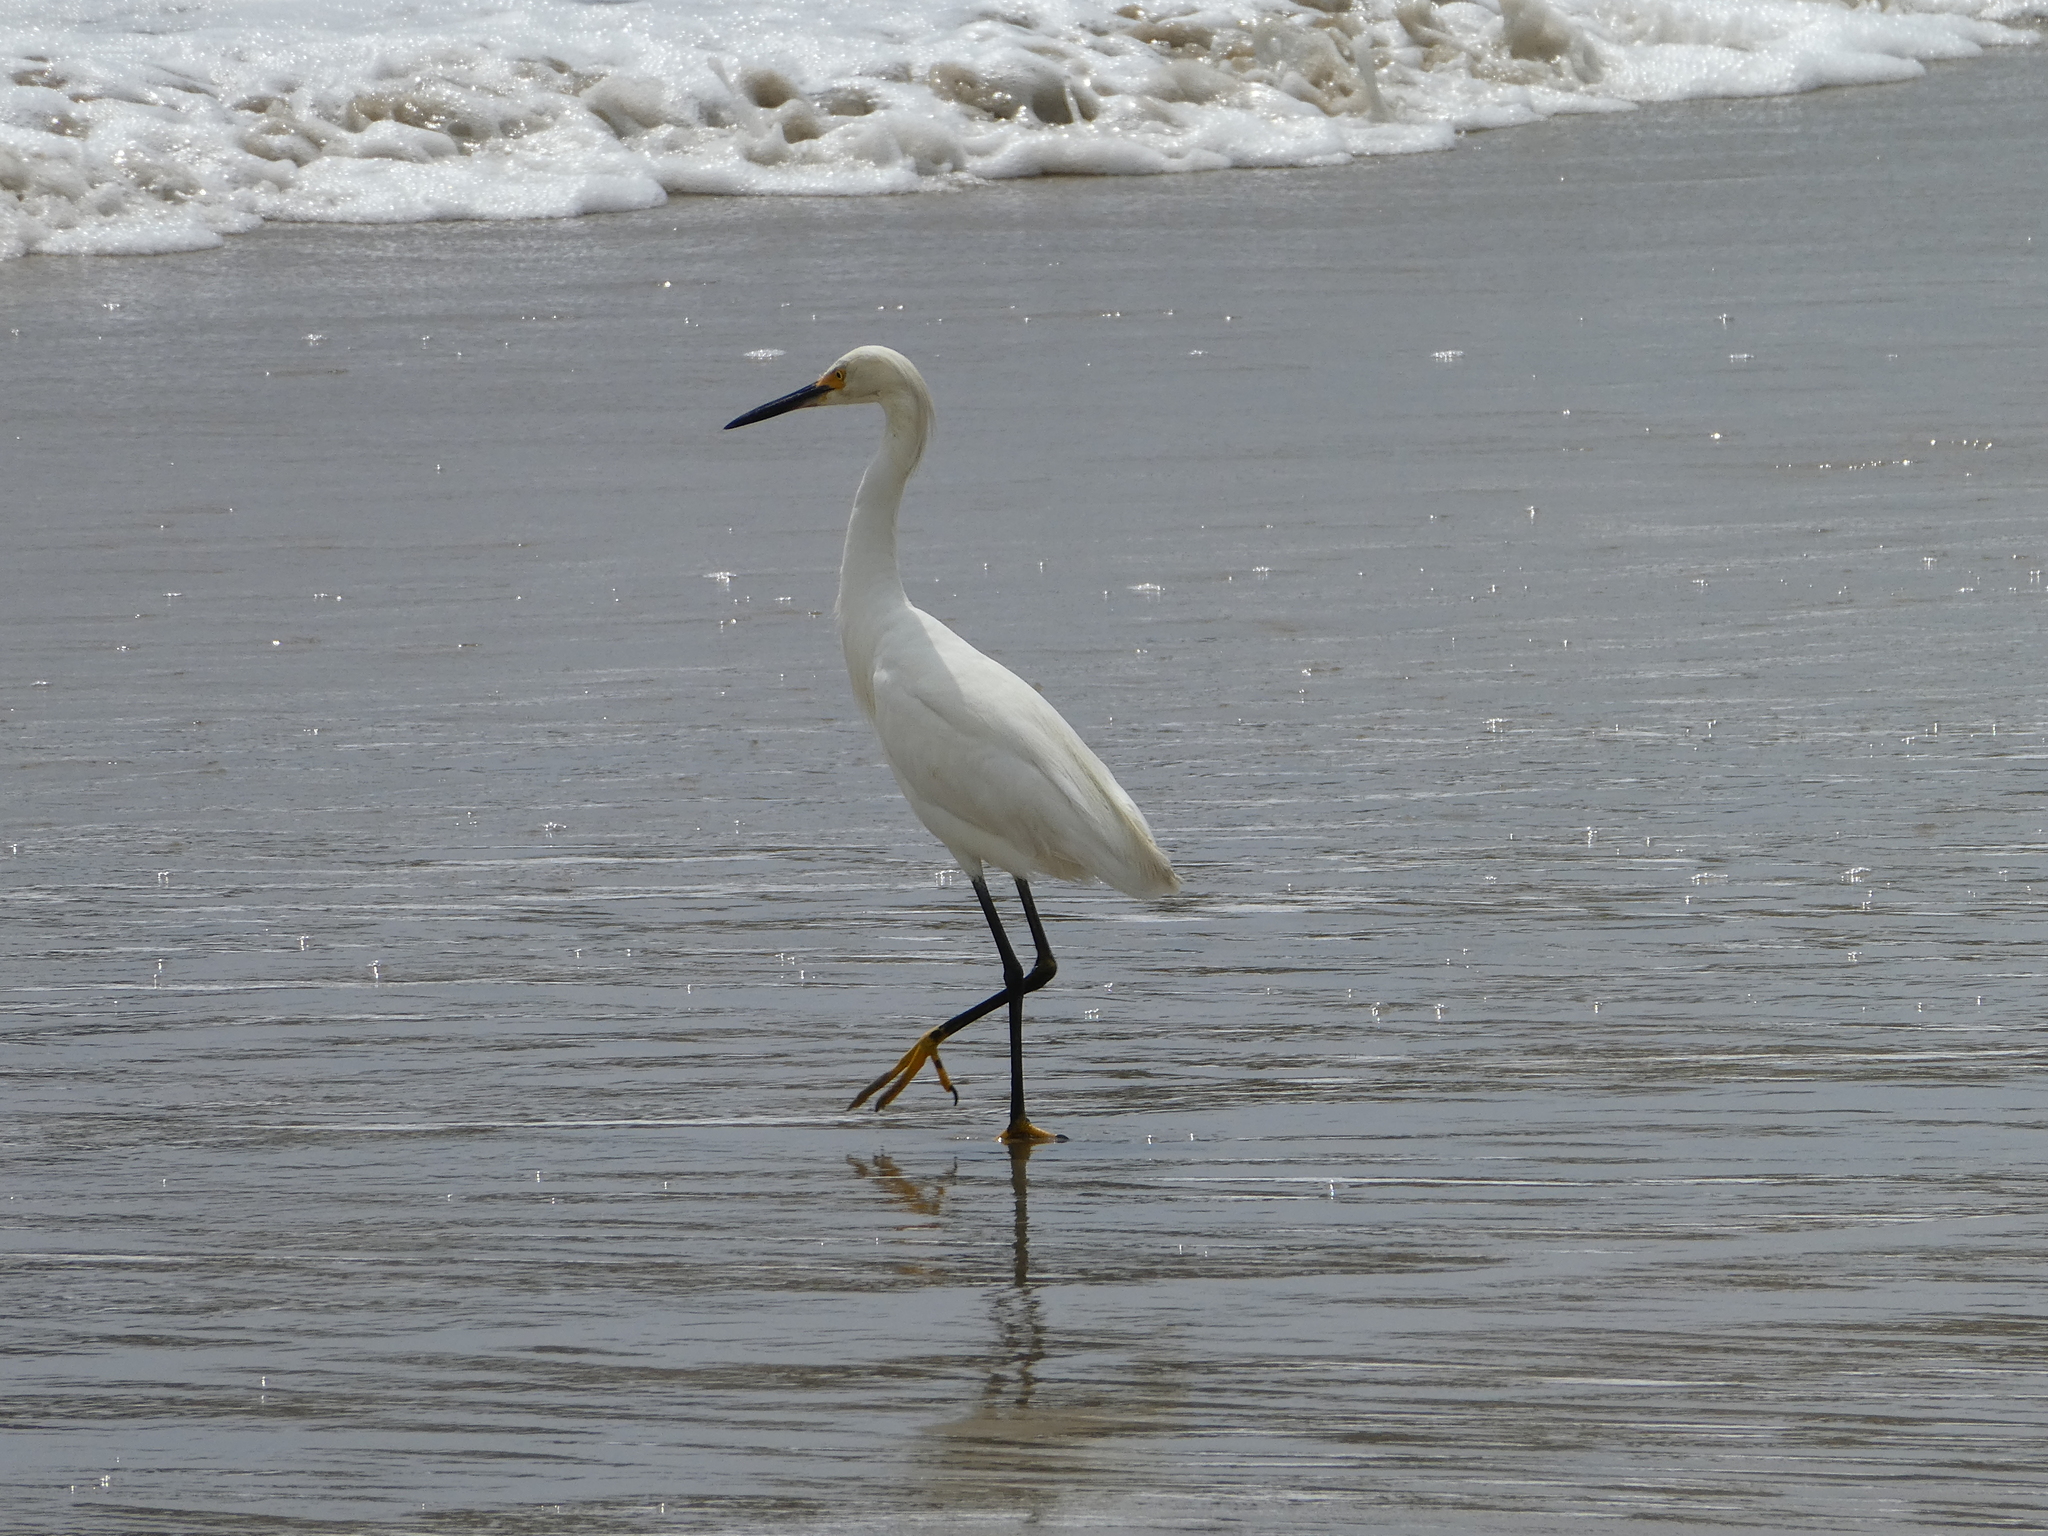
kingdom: Animalia
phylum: Chordata
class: Aves
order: Pelecaniformes
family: Ardeidae
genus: Egretta
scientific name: Egretta thula
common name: Snowy egret
